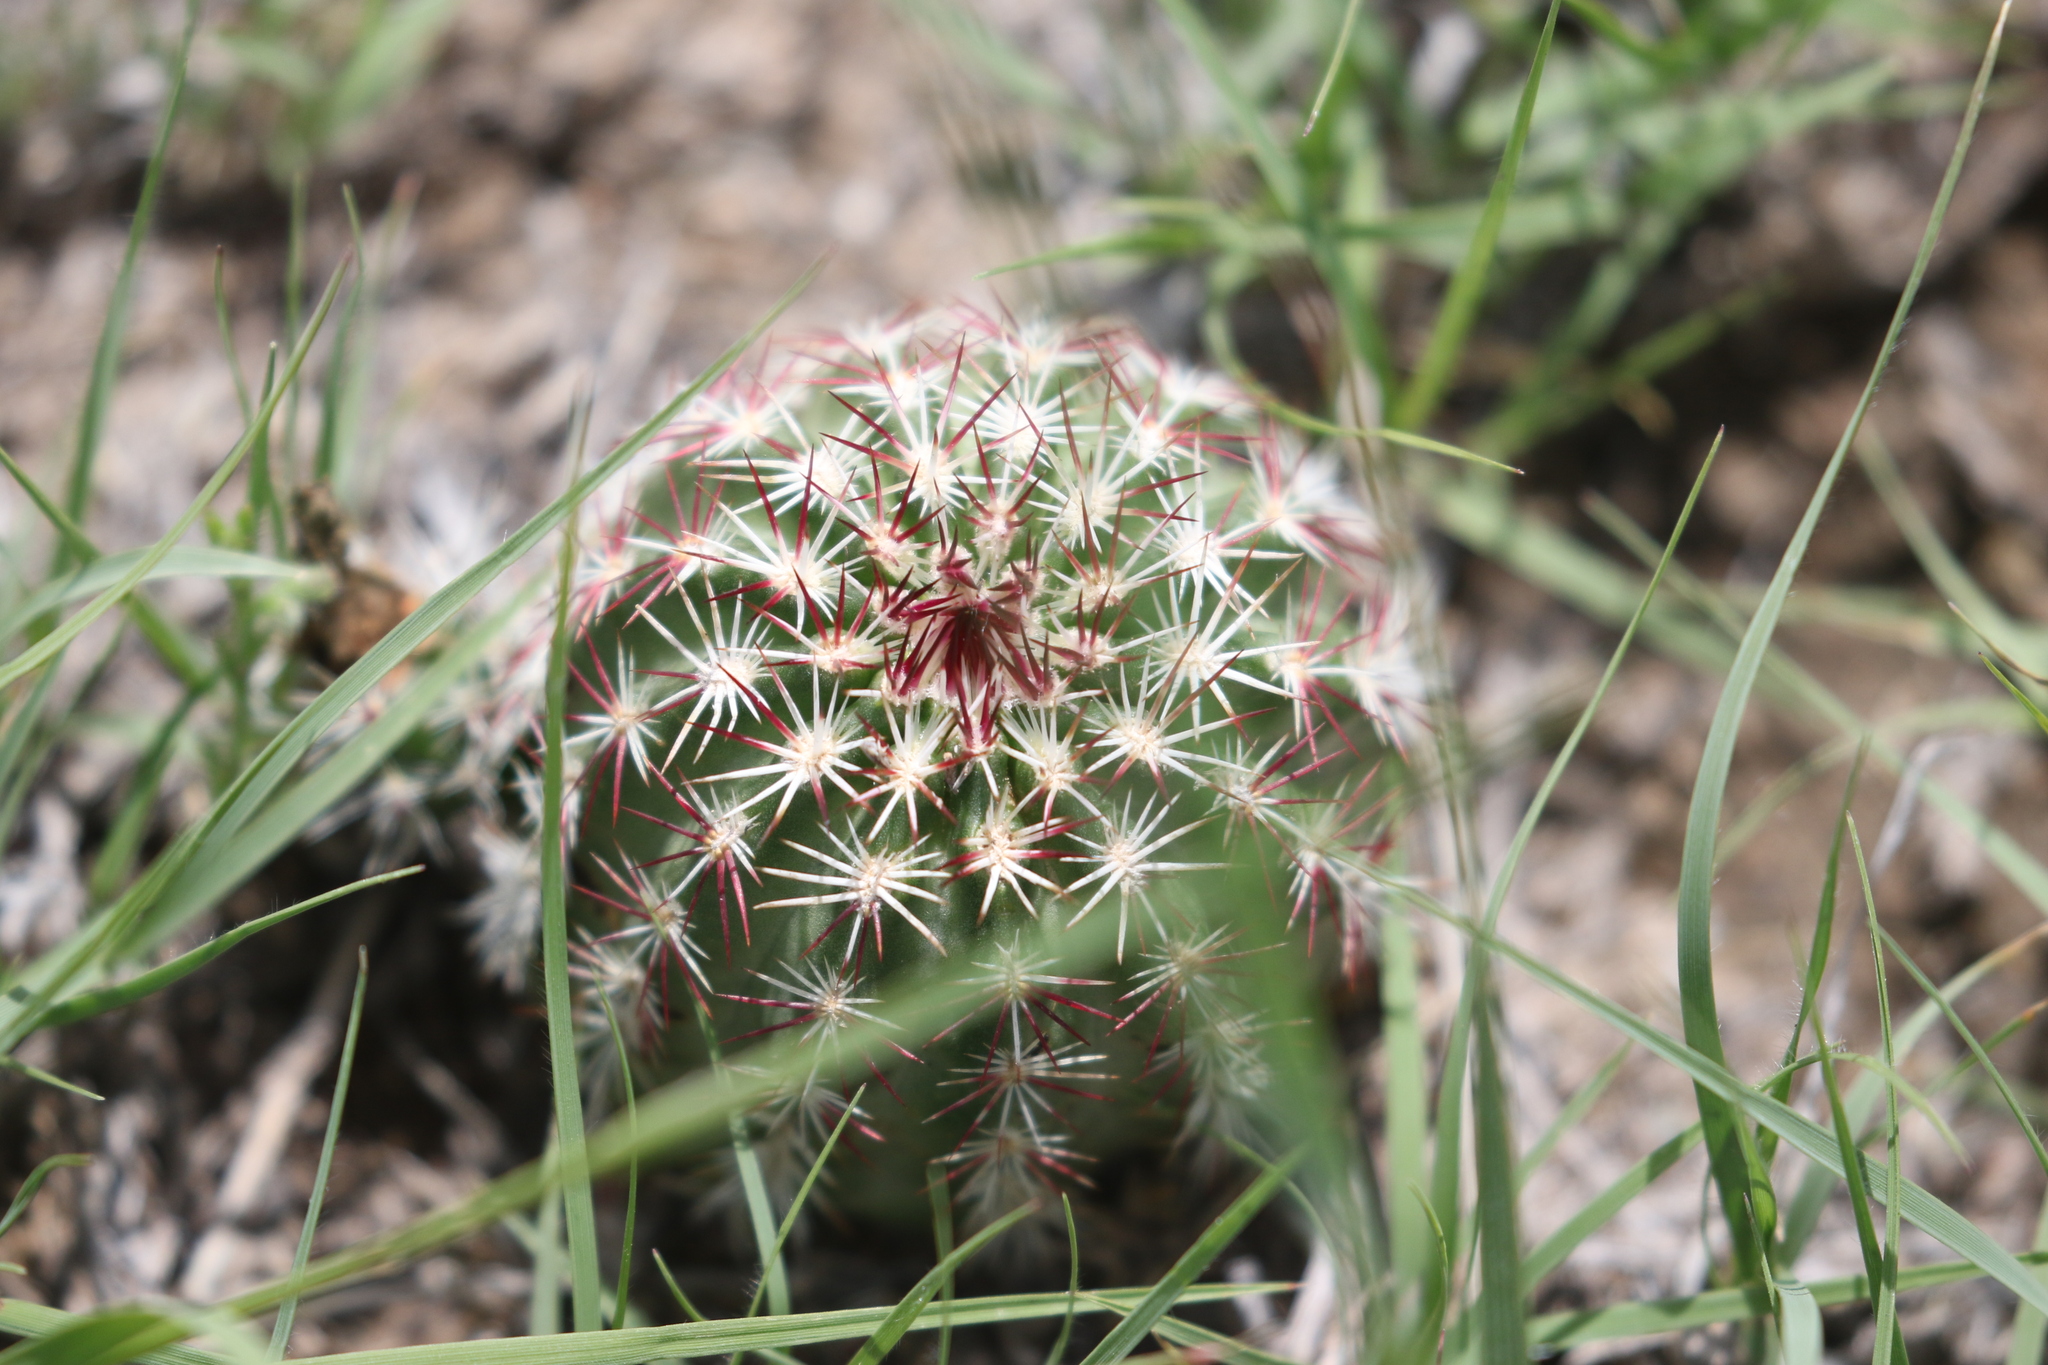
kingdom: Plantae
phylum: Tracheophyta
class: Magnoliopsida
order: Caryophyllales
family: Cactaceae
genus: Echinocereus
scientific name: Echinocereus viridiflorus
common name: Nylon hedgehog cactus
